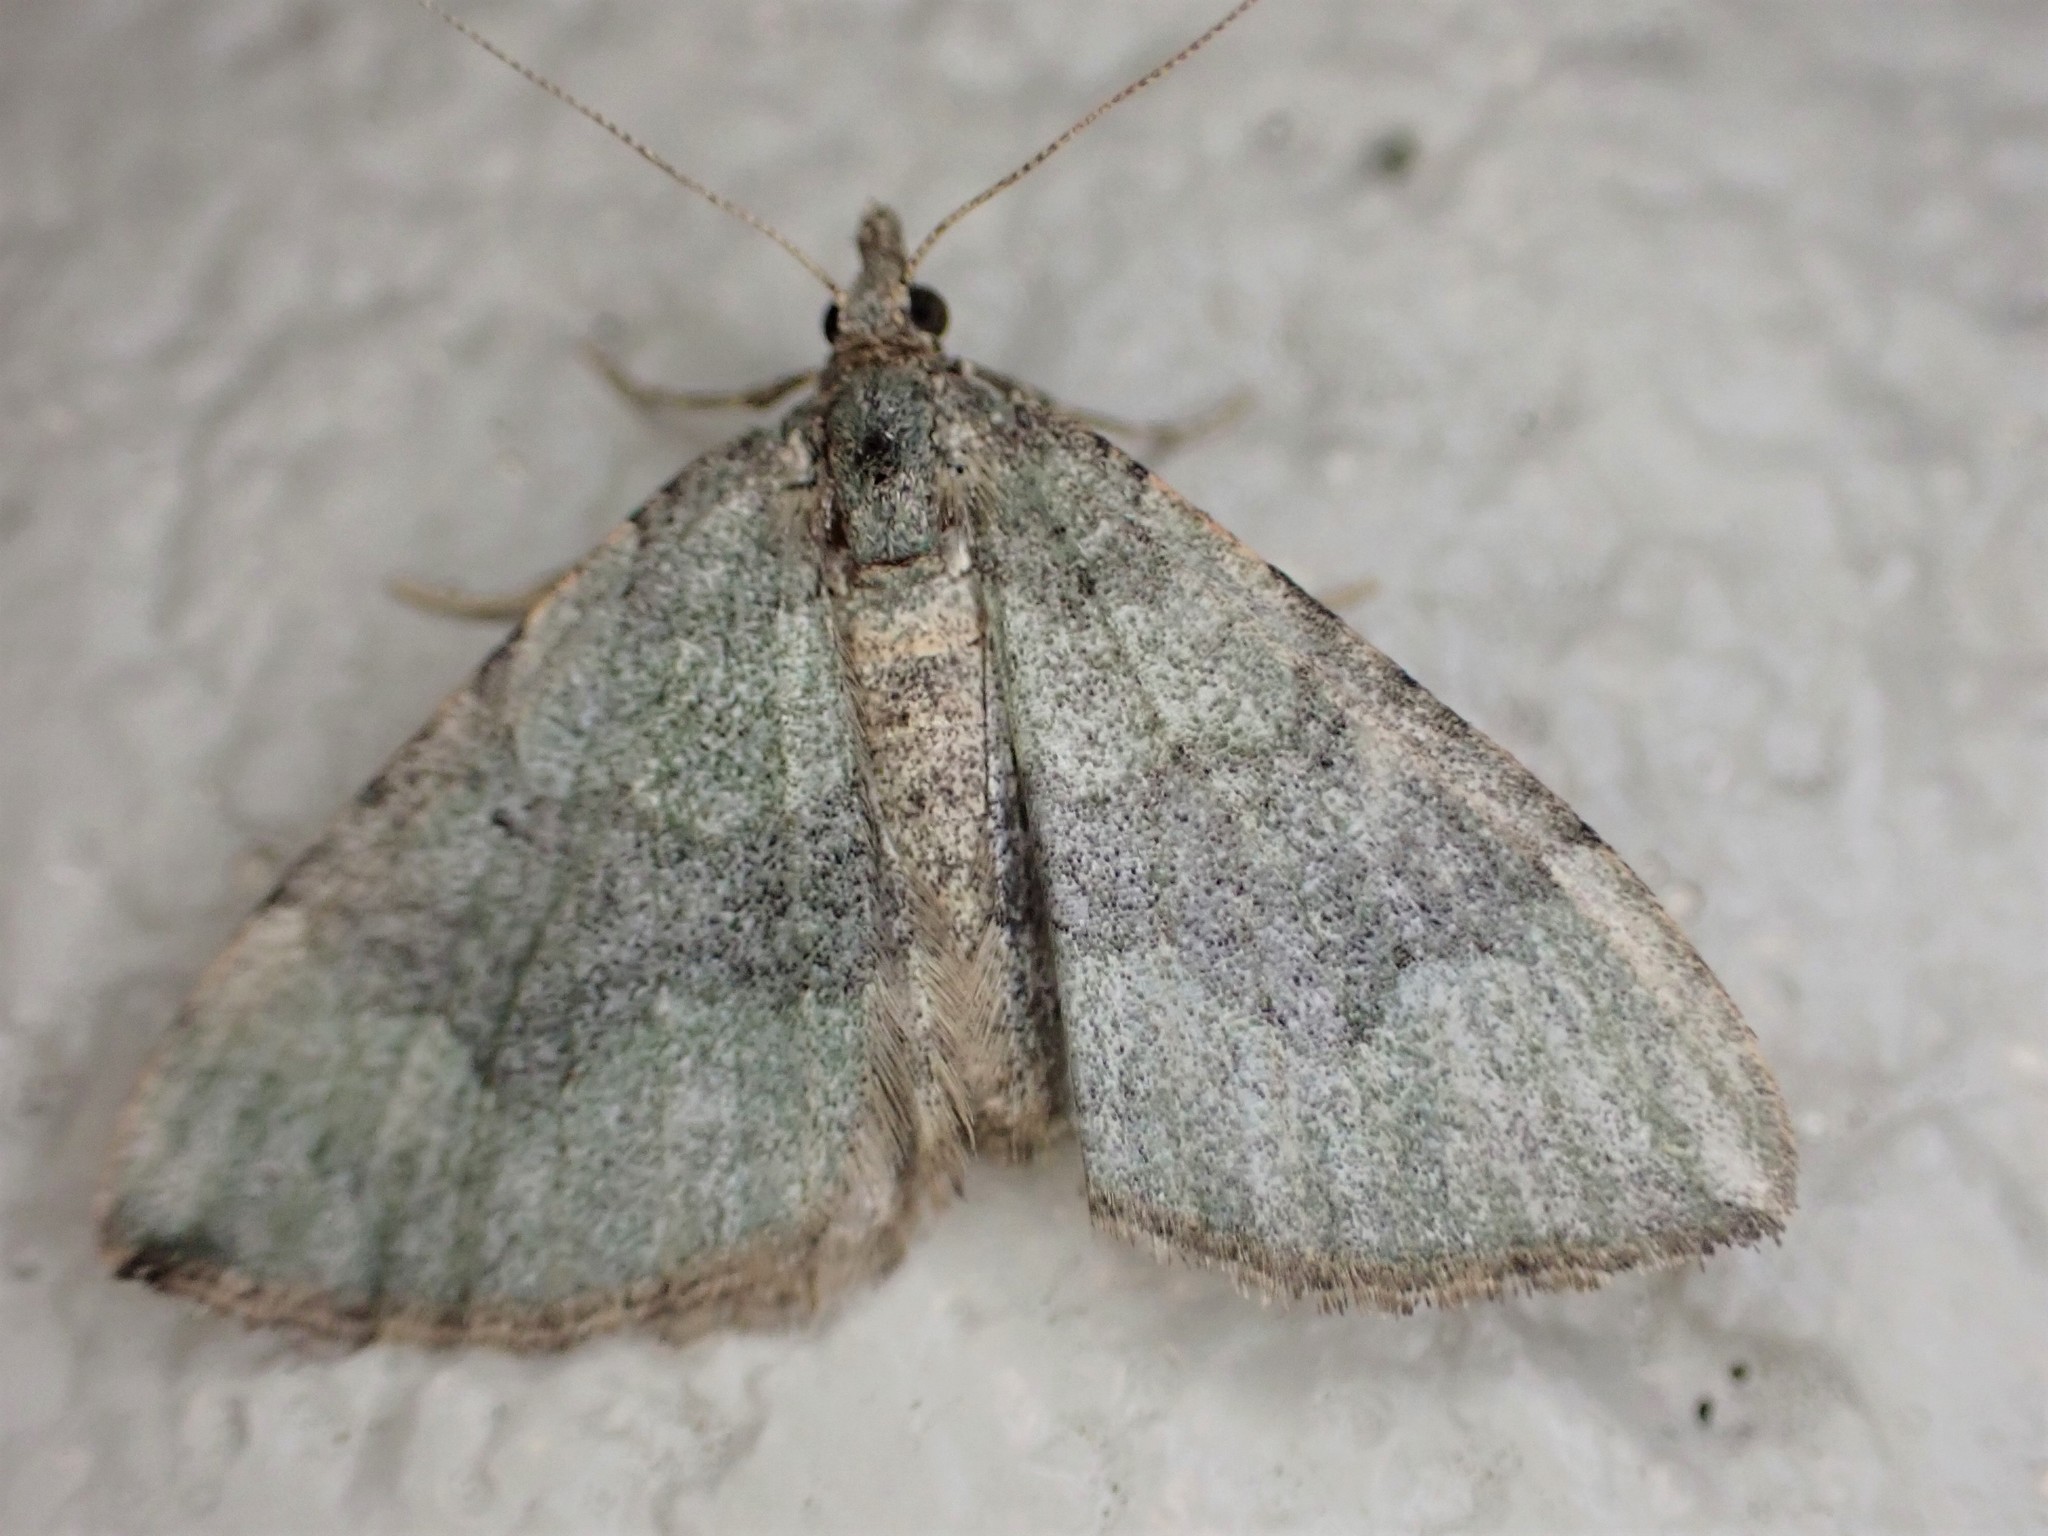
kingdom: Animalia
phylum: Arthropoda
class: Insecta
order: Lepidoptera
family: Geometridae
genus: Epyaxa
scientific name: Epyaxa rosearia
